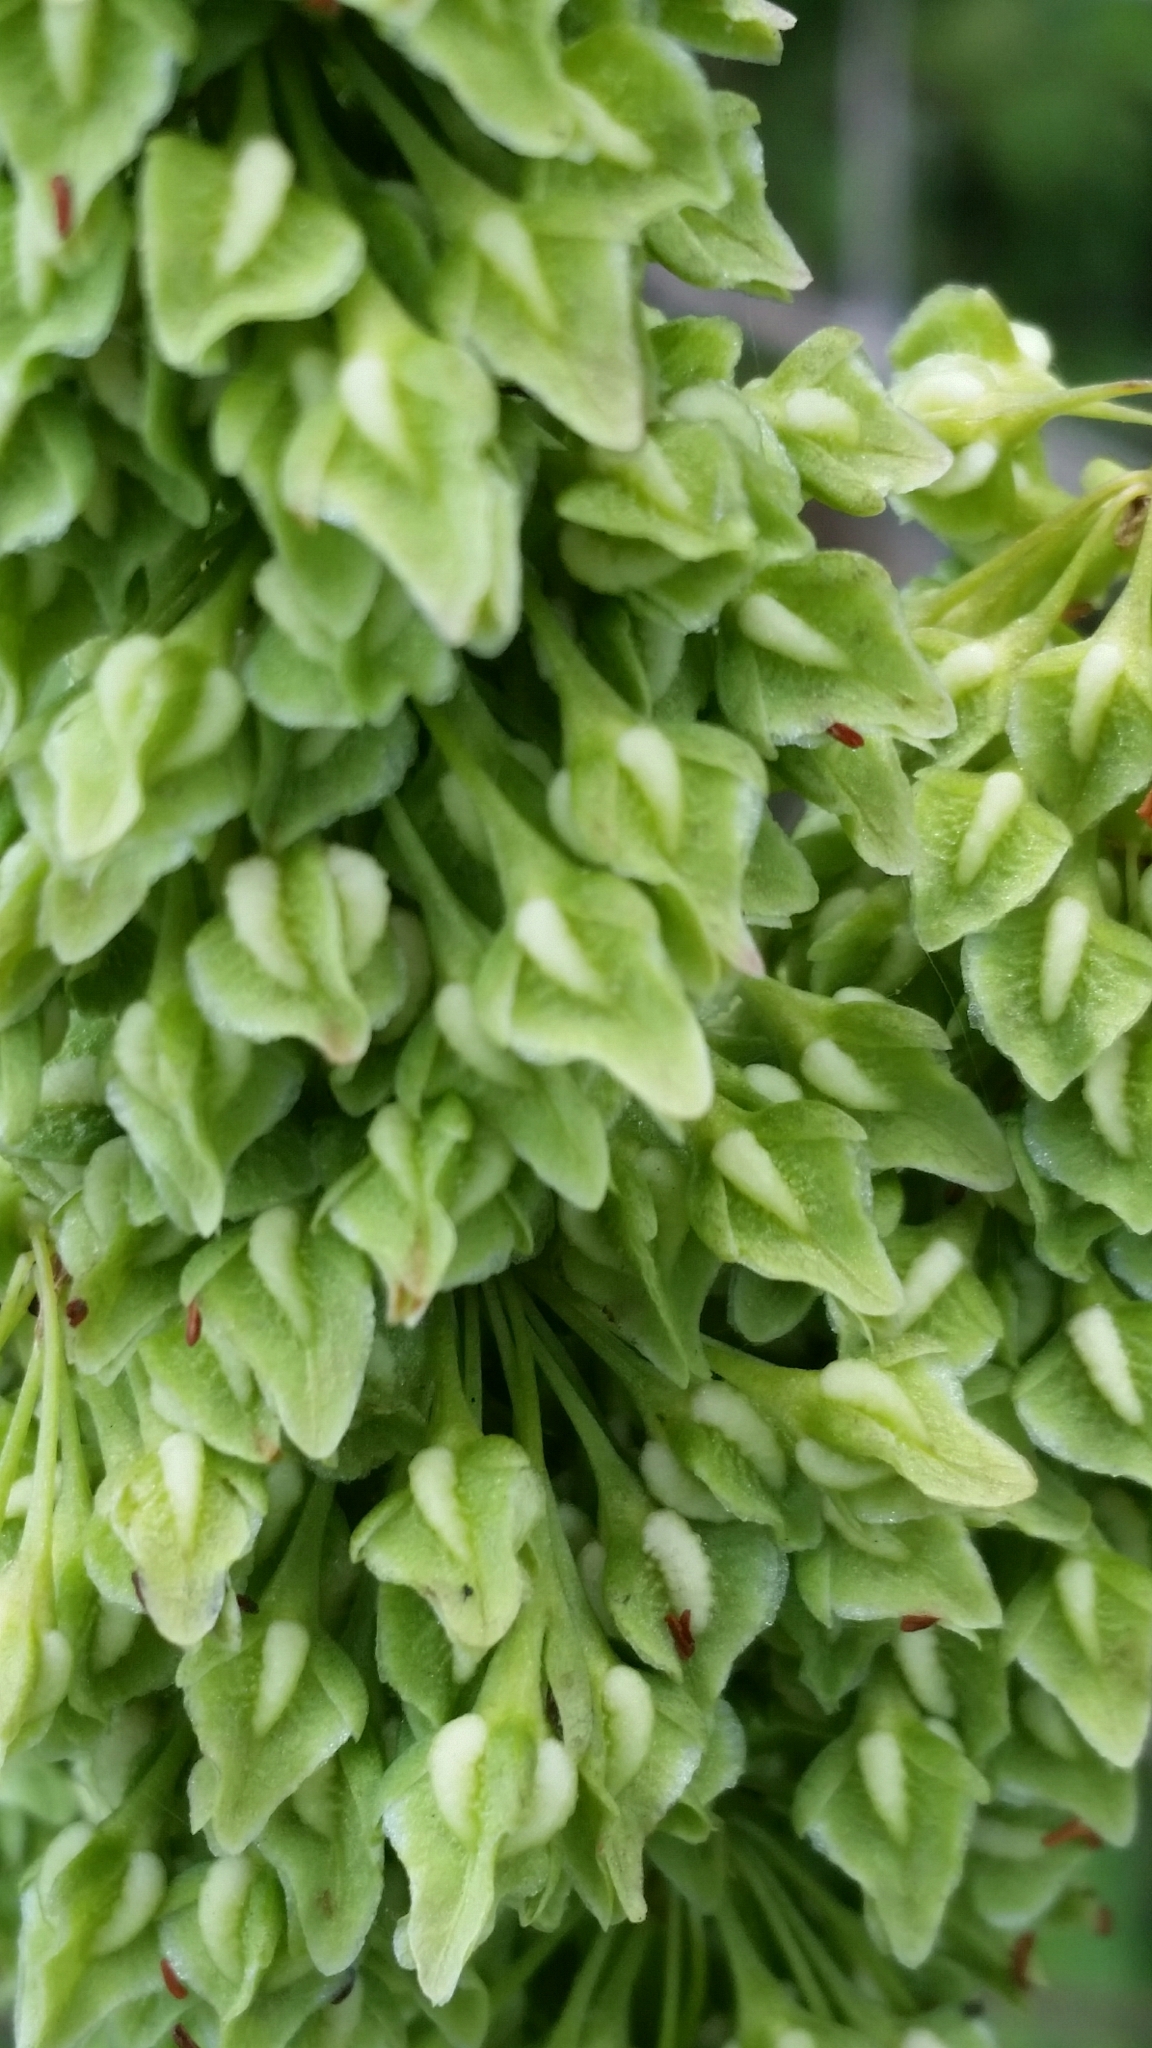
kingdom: Plantae
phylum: Tracheophyta
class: Magnoliopsida
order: Caryophyllales
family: Polygonaceae
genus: Rumex
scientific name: Rumex verticillatus
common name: Swamp dock
